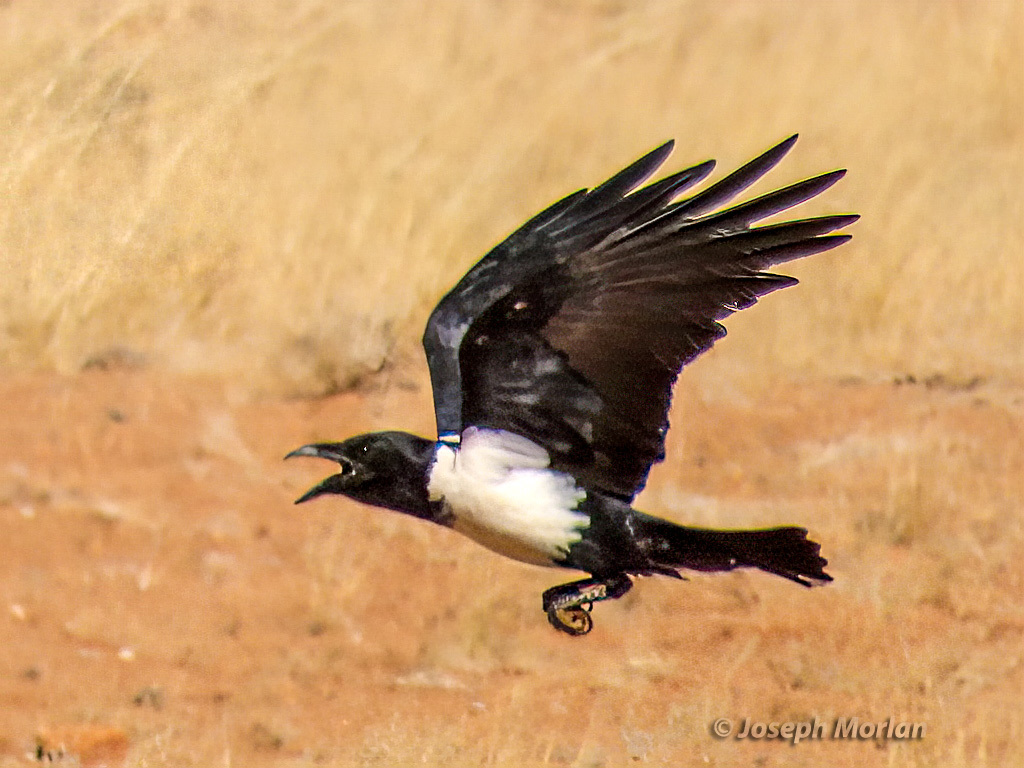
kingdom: Animalia
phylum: Chordata
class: Aves
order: Passeriformes
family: Corvidae
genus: Corvus
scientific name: Corvus albus
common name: Pied crow
